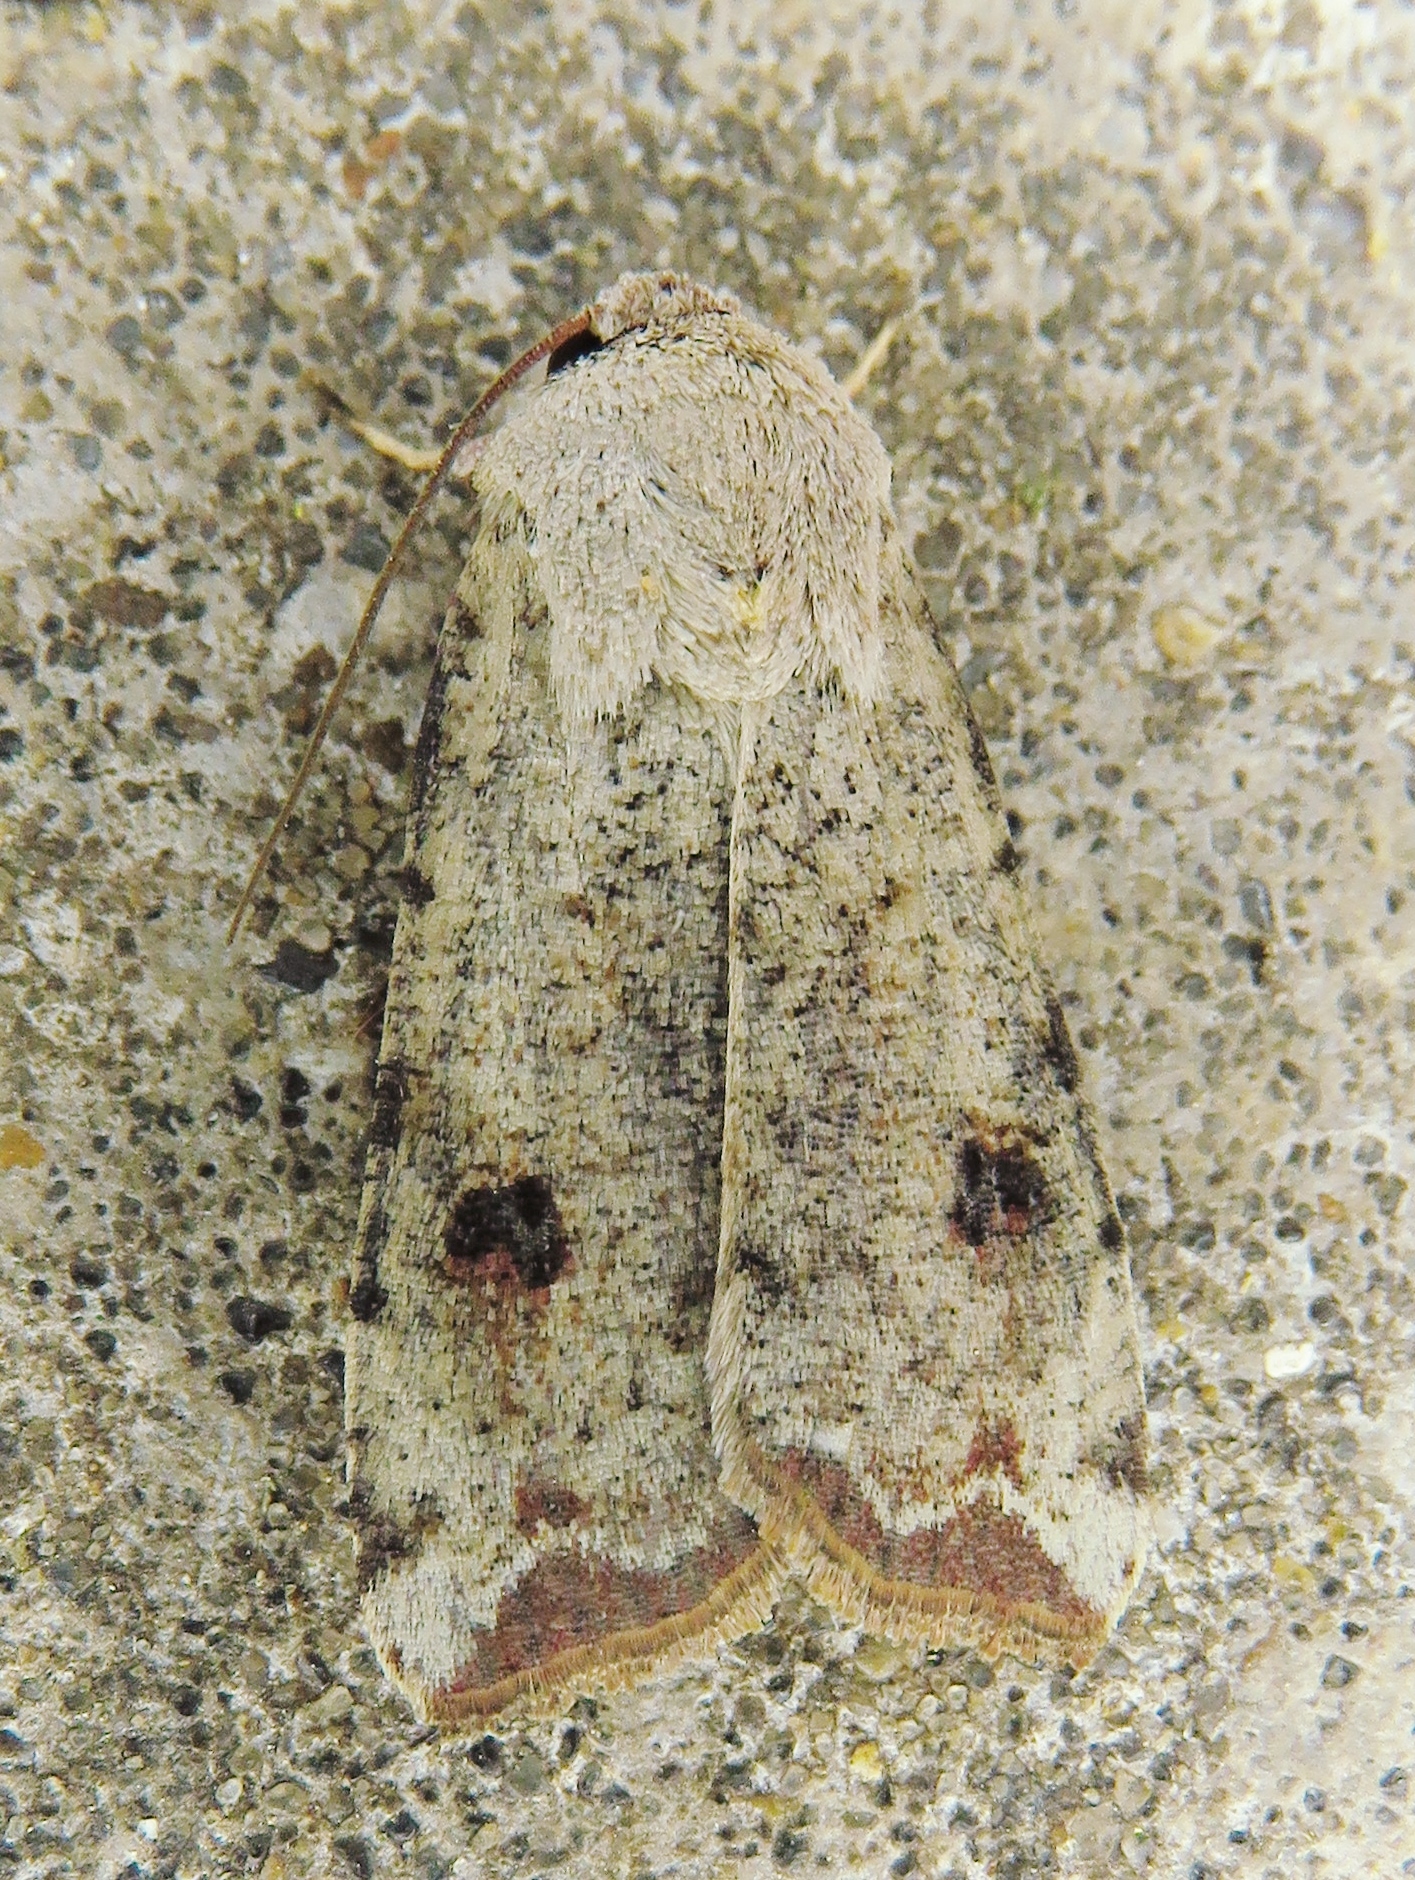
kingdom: Animalia
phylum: Arthropoda
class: Insecta
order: Lepidoptera
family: Noctuidae
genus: Anicla
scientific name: Anicla infecta
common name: Green cutworm
